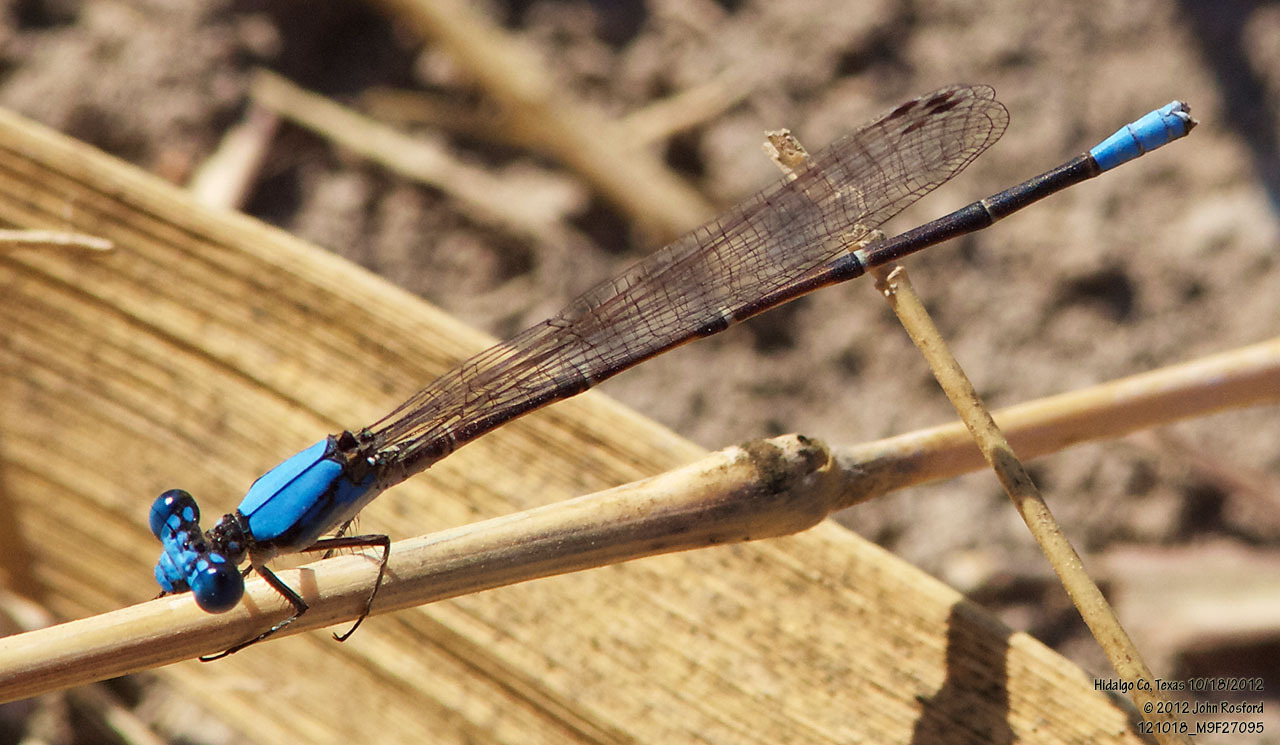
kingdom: Animalia
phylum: Arthropoda
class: Insecta
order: Odonata
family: Coenagrionidae
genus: Argia
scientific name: Argia apicalis
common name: Blue-fronted dancer
